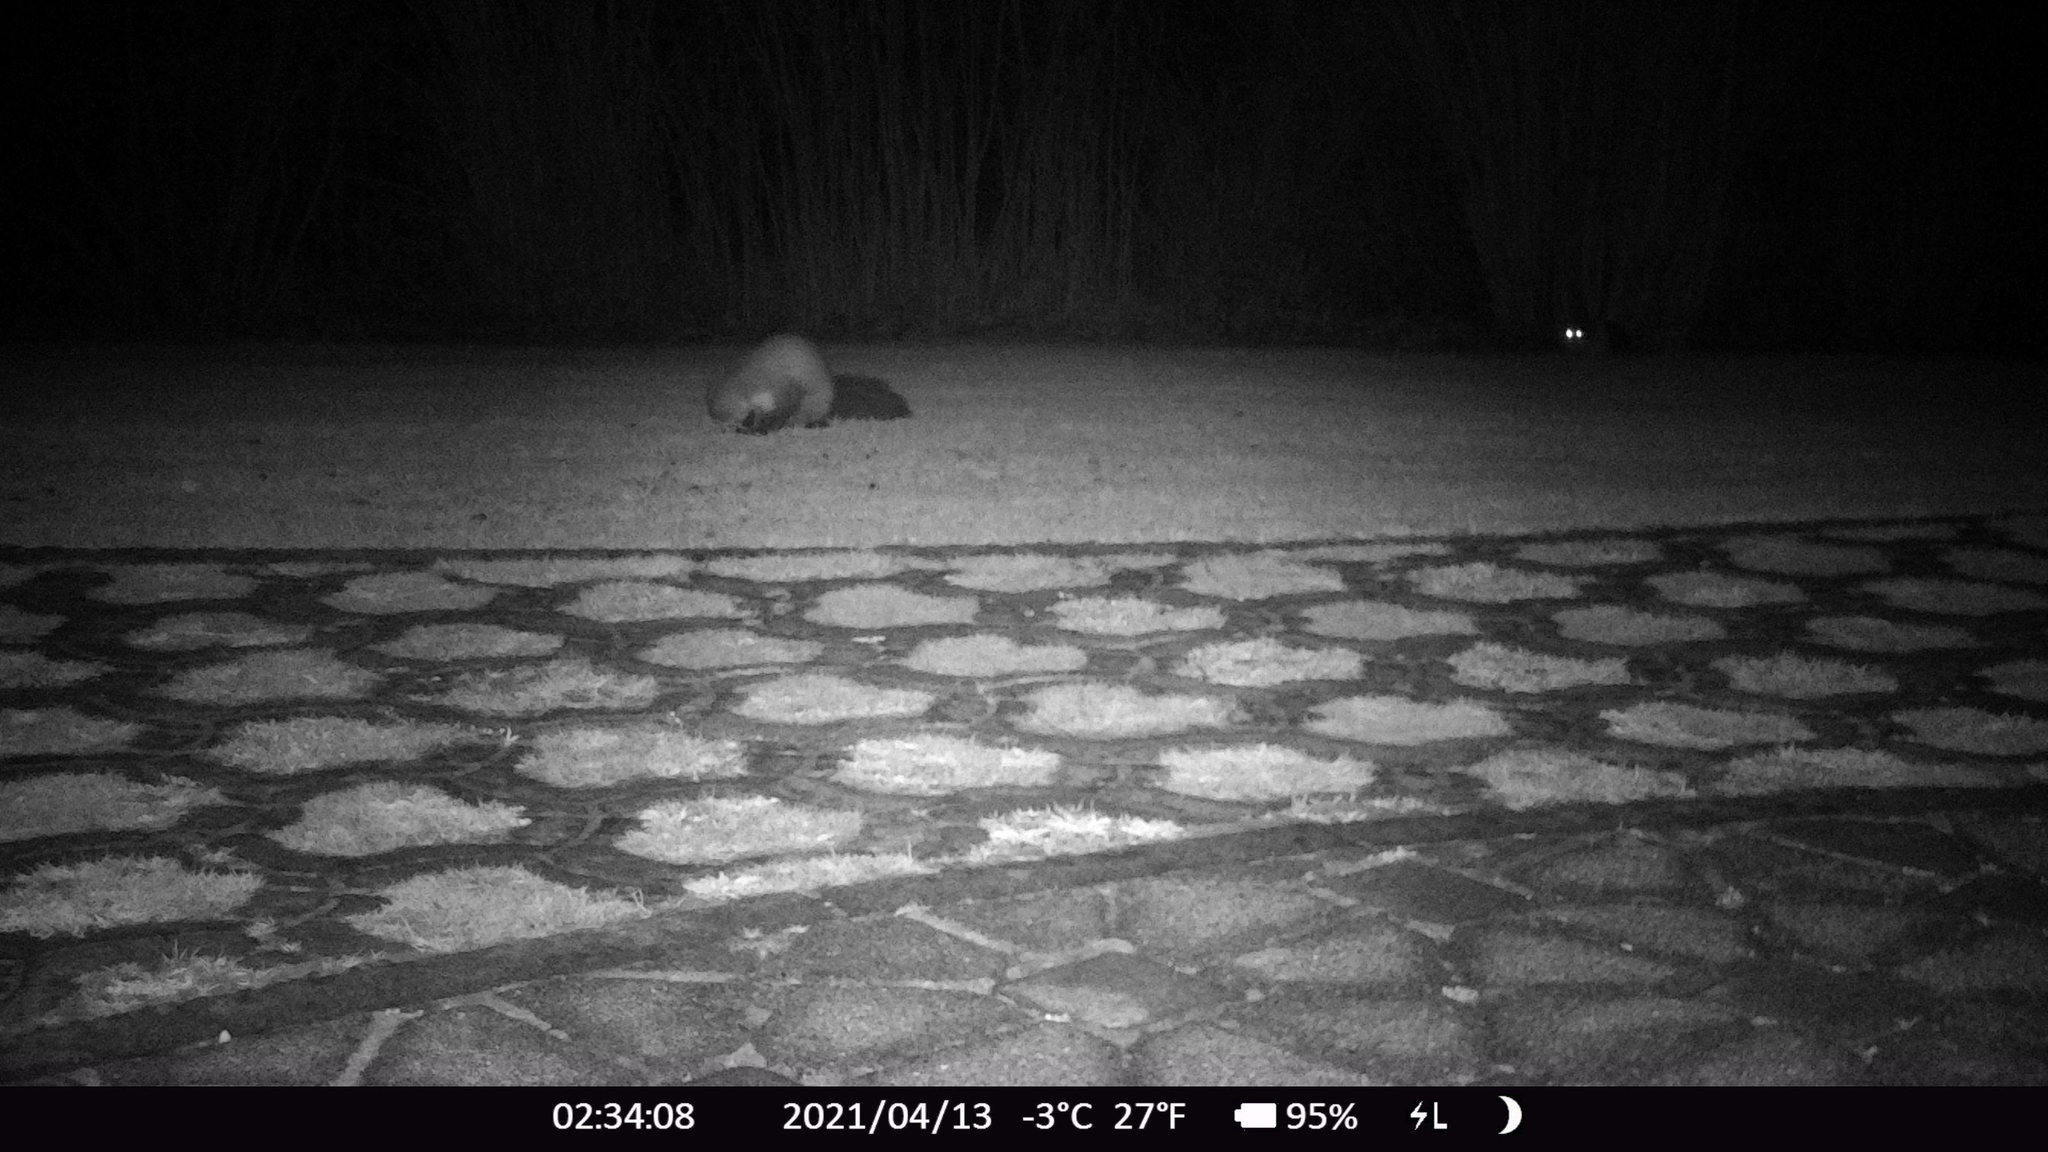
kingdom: Animalia
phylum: Chordata
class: Mammalia
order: Carnivora
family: Mustelidae
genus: Martes
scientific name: Martes foina
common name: Beech marten
